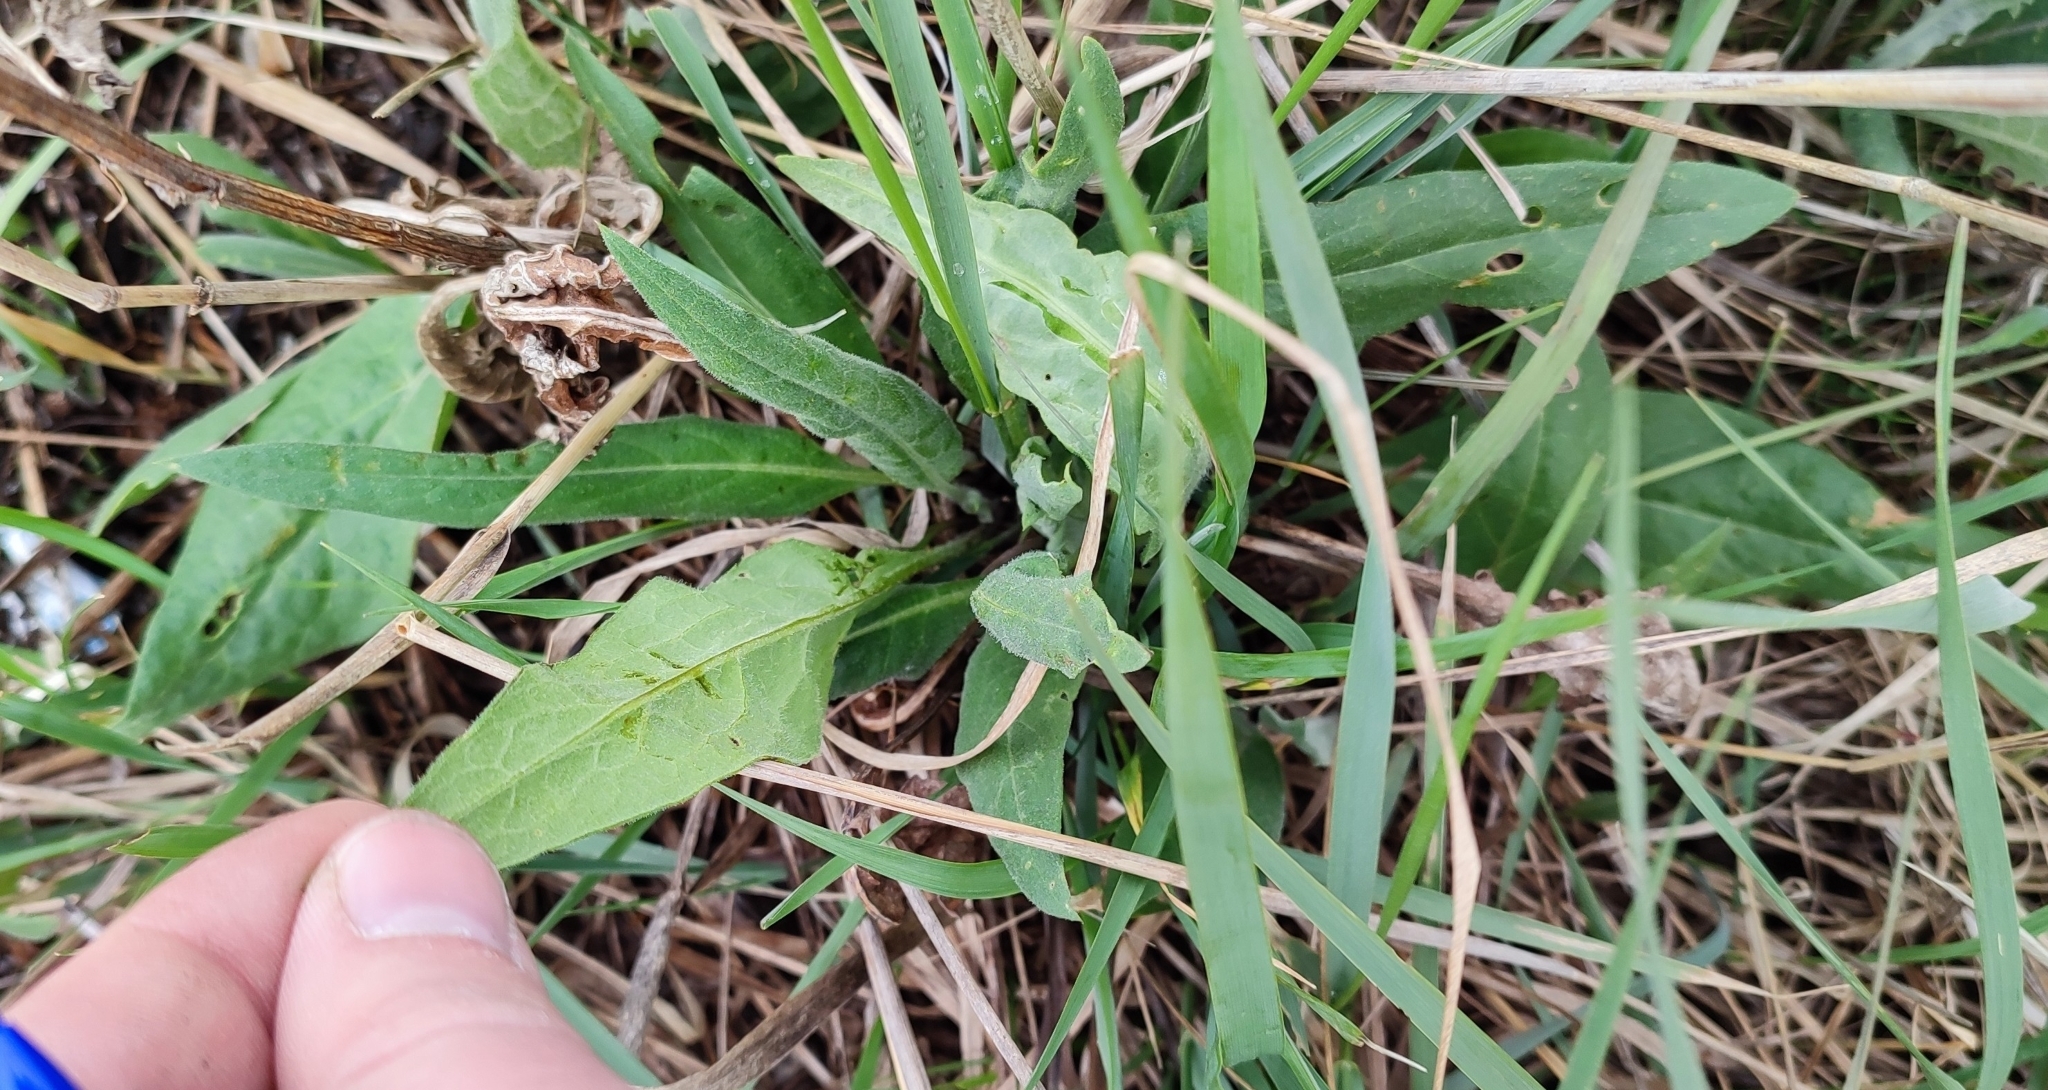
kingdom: Plantae
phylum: Tracheophyta
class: Magnoliopsida
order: Asterales
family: Asteraceae
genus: Saussurea
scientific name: Saussurea amara
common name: Alberta sawwort
